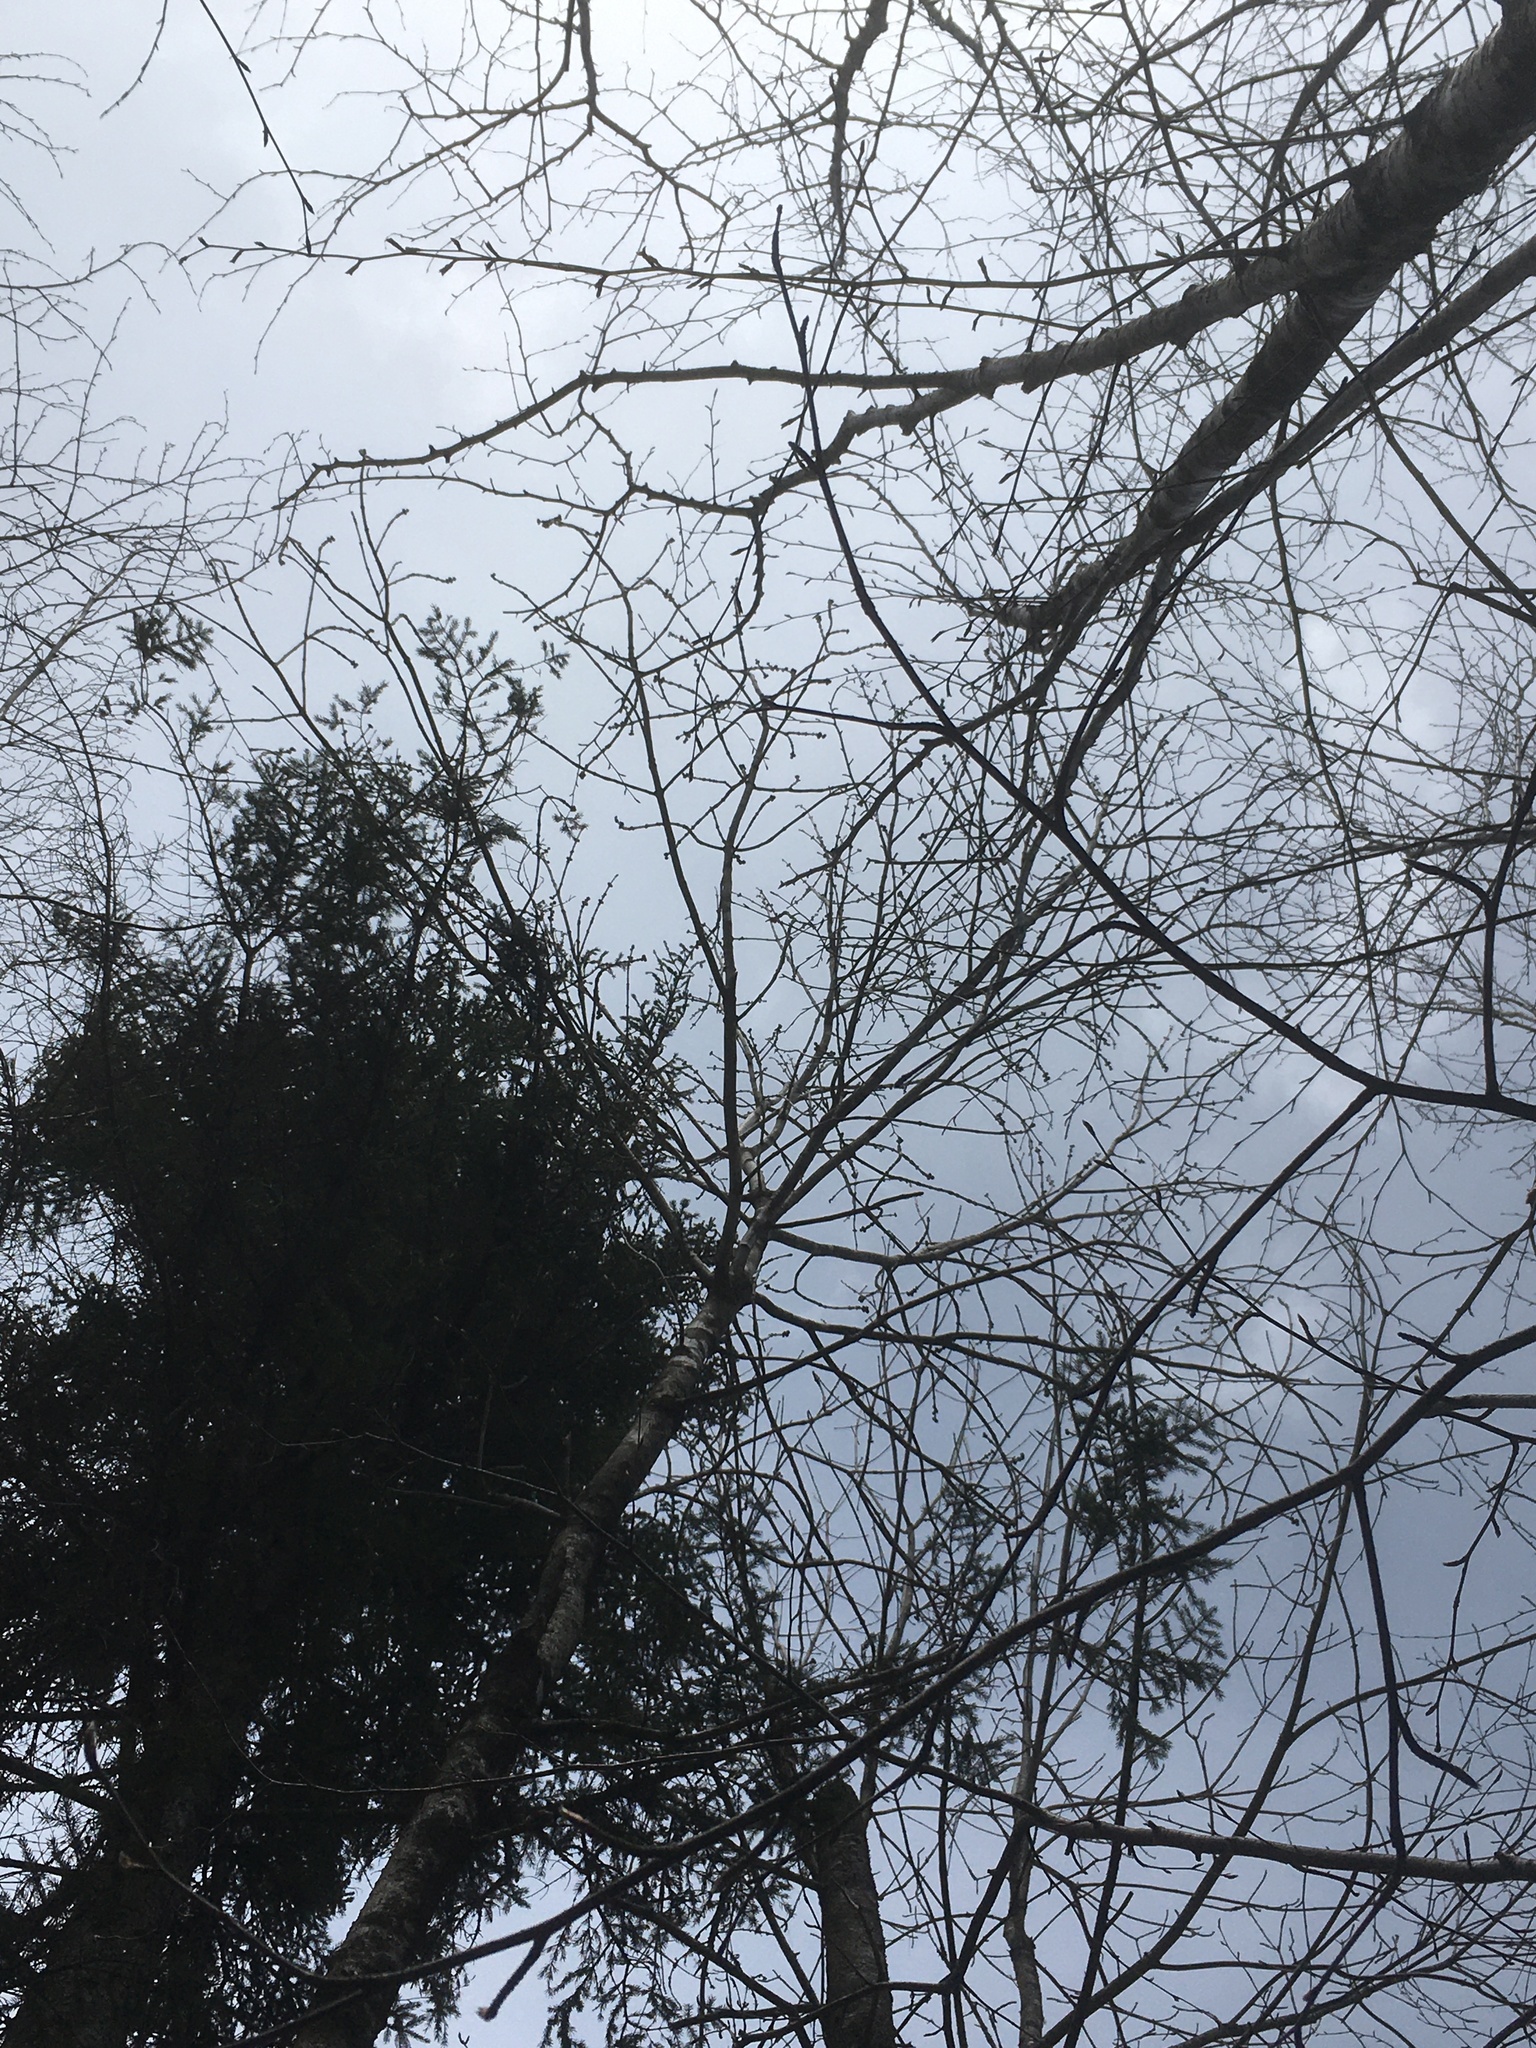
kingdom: Plantae
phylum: Tracheophyta
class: Magnoliopsida
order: Lamiales
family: Oleaceae
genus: Fraxinus
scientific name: Fraxinus nigra
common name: Black ash
